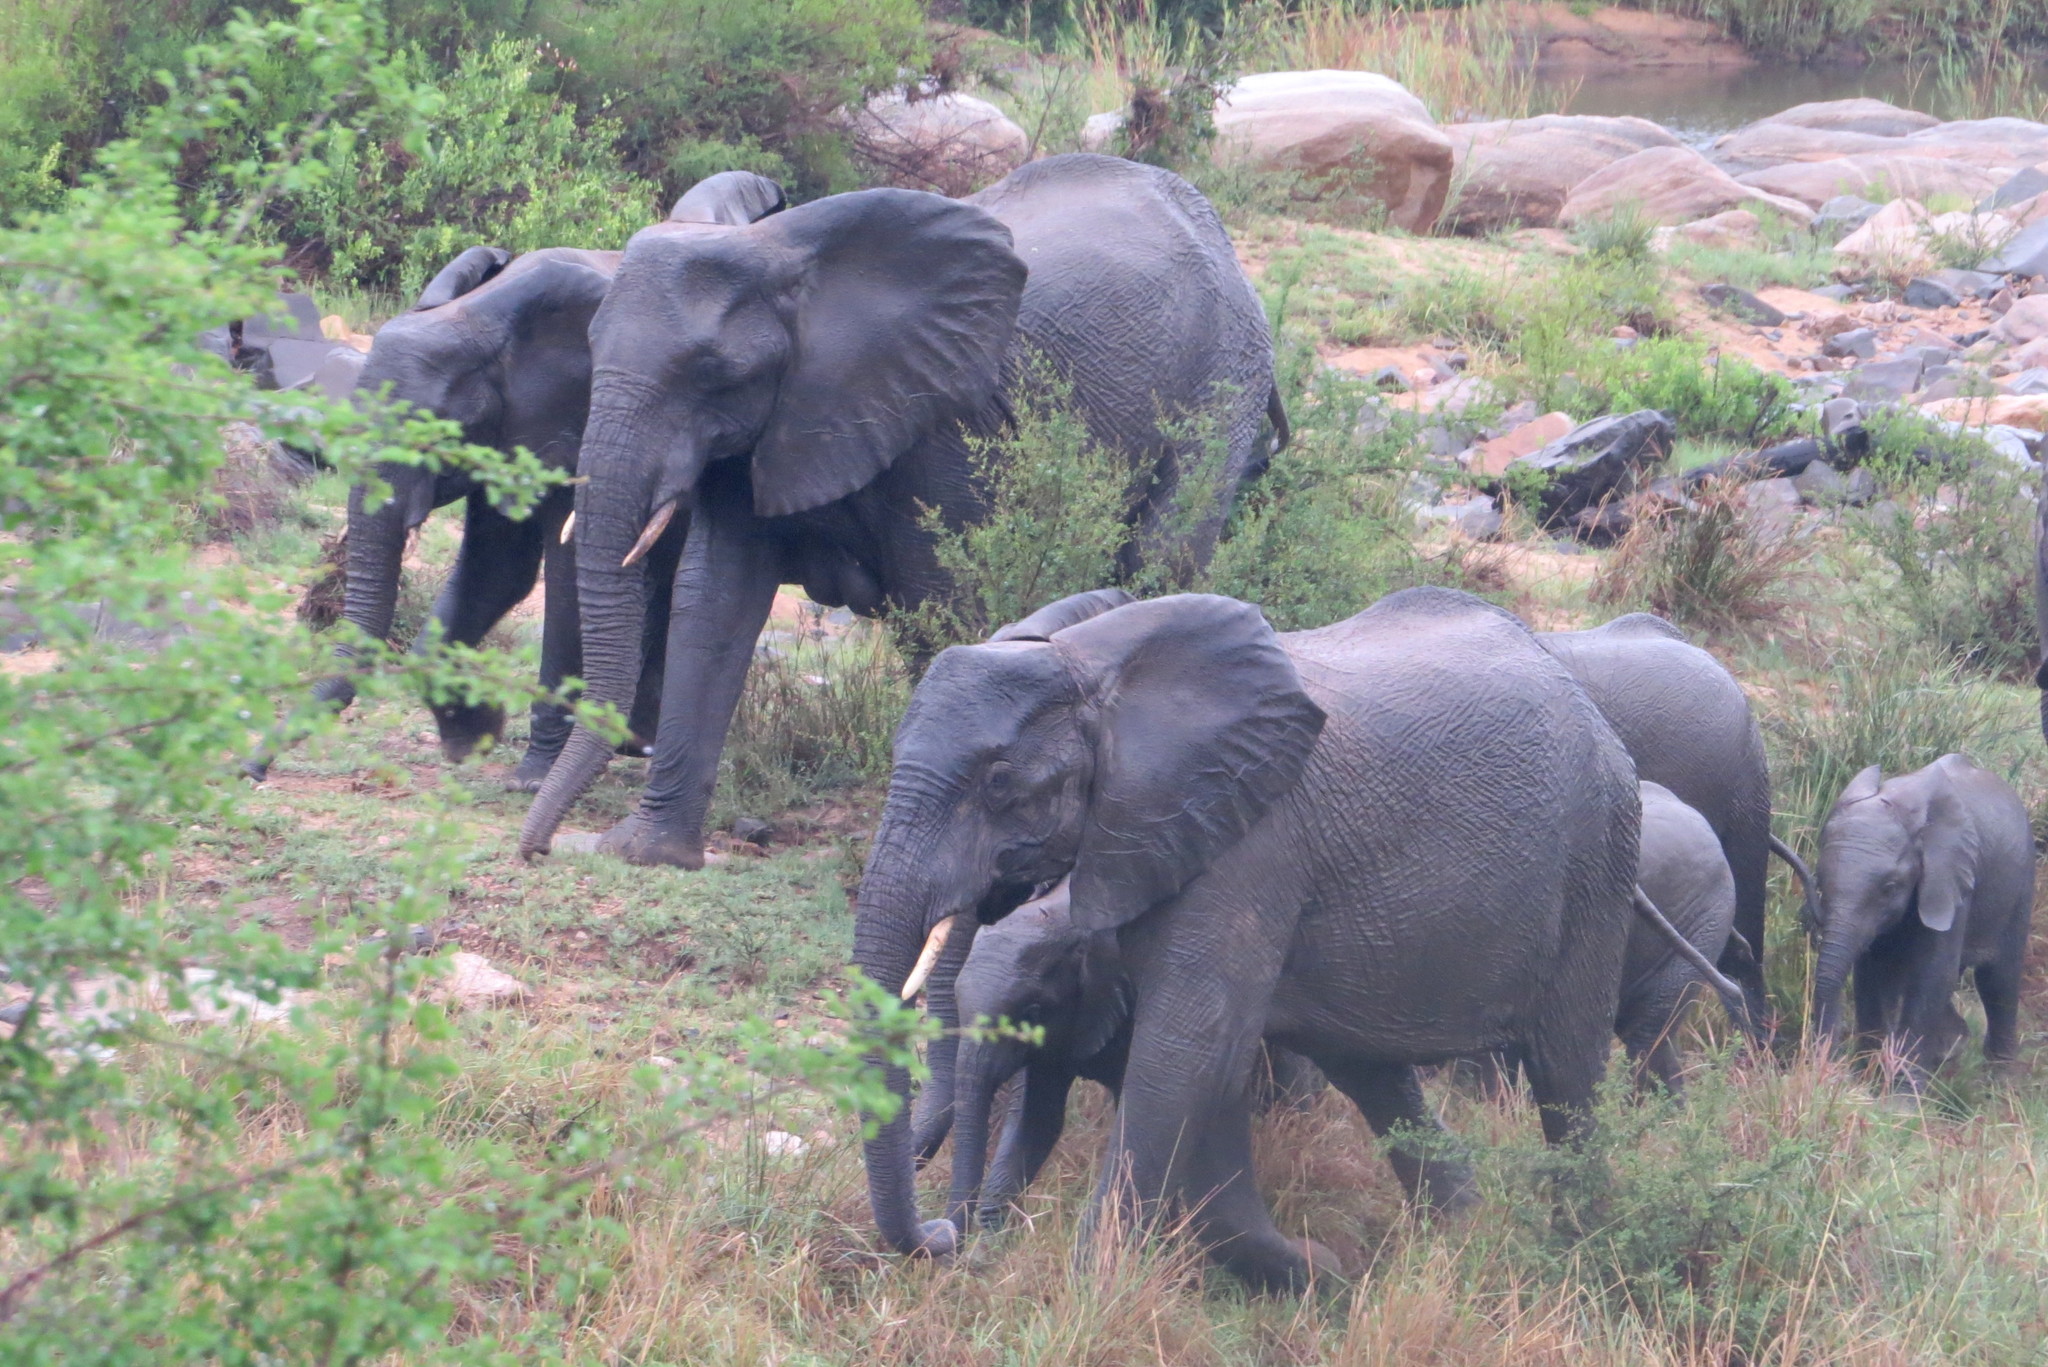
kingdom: Animalia
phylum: Chordata
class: Mammalia
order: Proboscidea
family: Elephantidae
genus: Loxodonta
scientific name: Loxodonta africana
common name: African elephant
